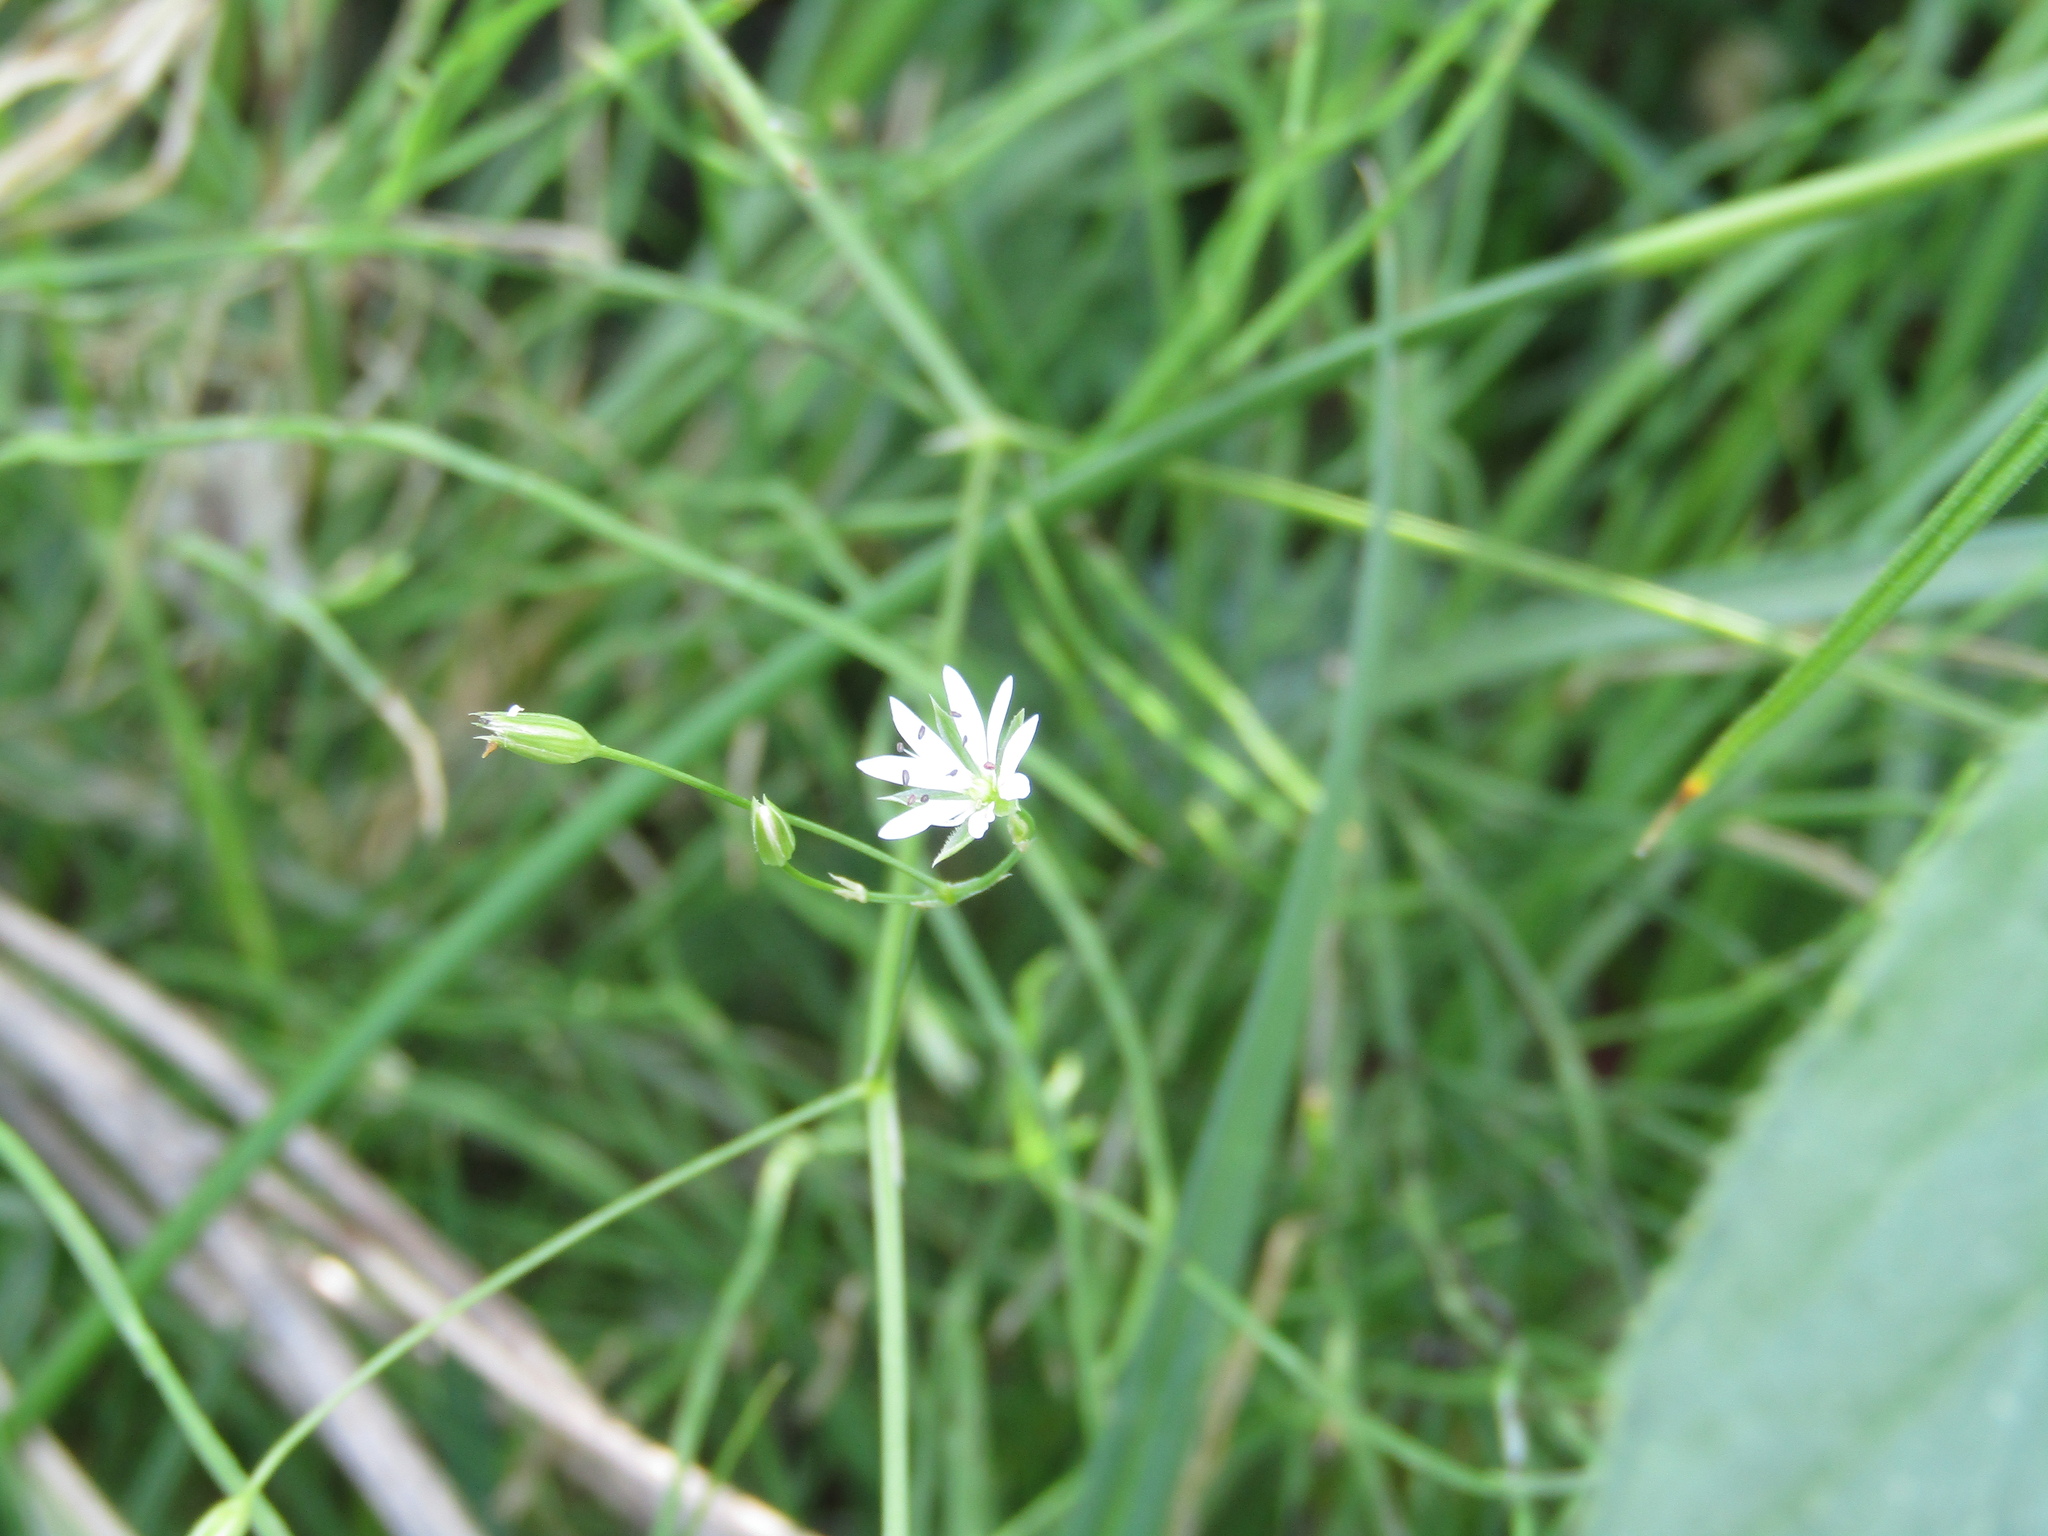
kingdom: Plantae
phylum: Tracheophyta
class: Magnoliopsida
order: Caryophyllales
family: Caryophyllaceae
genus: Stellaria
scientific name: Stellaria graminea
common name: Grass-like starwort
